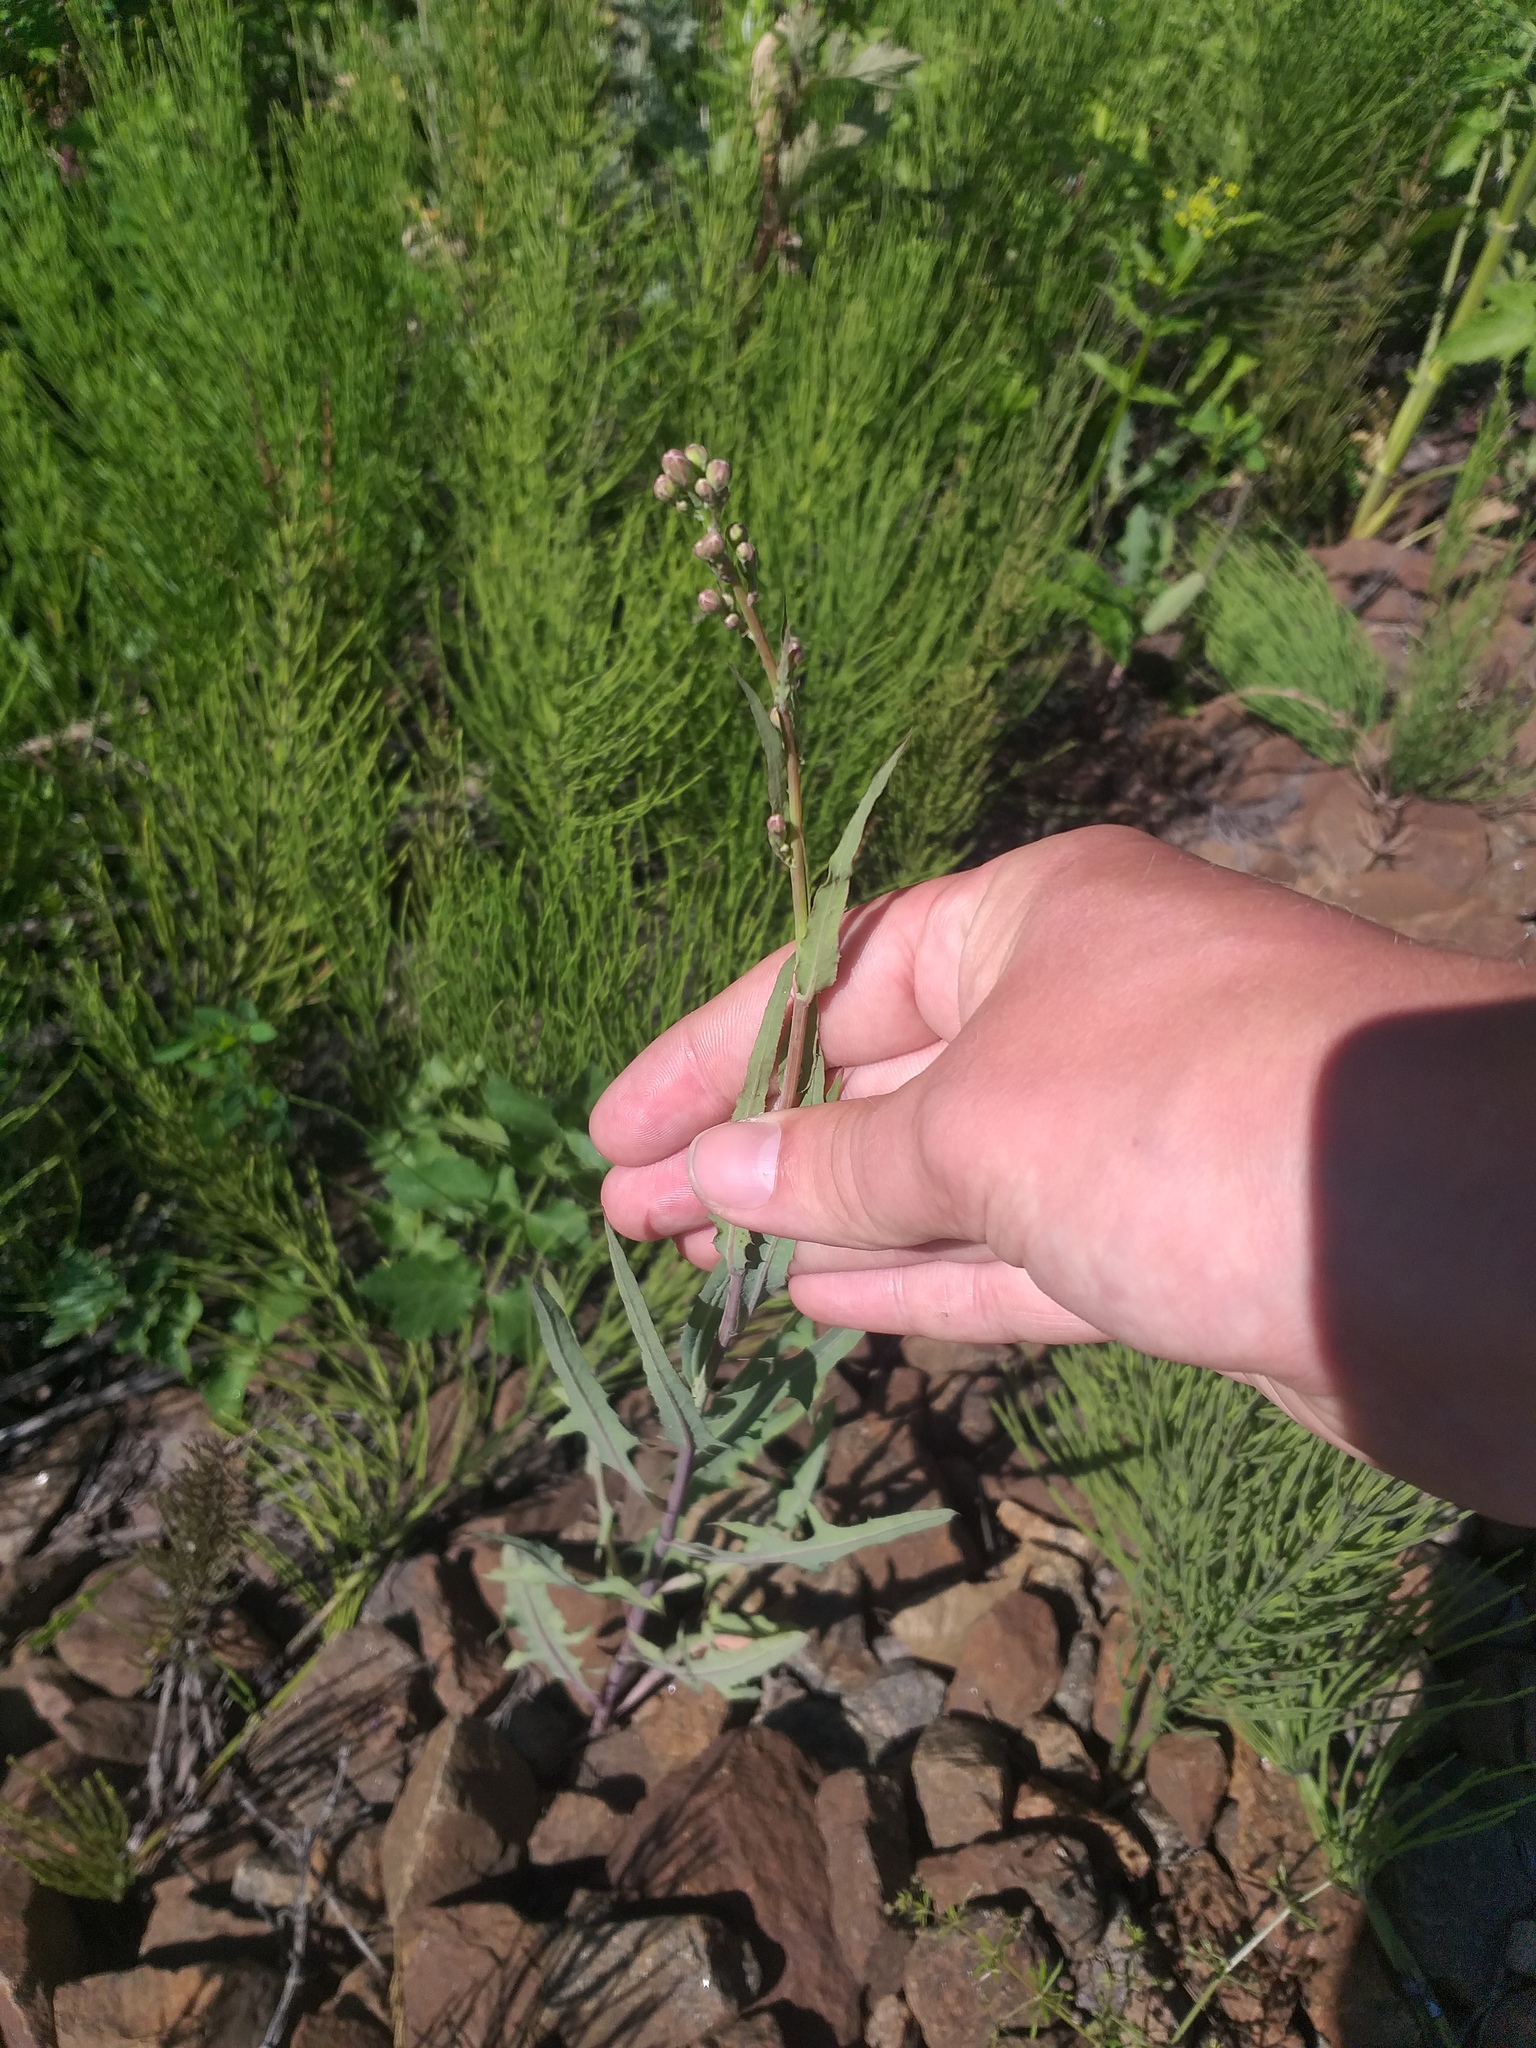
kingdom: Plantae
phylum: Tracheophyta
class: Magnoliopsida
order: Asterales
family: Asteraceae
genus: Lactuca
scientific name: Lactuca tatarica
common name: Blue lettuce
